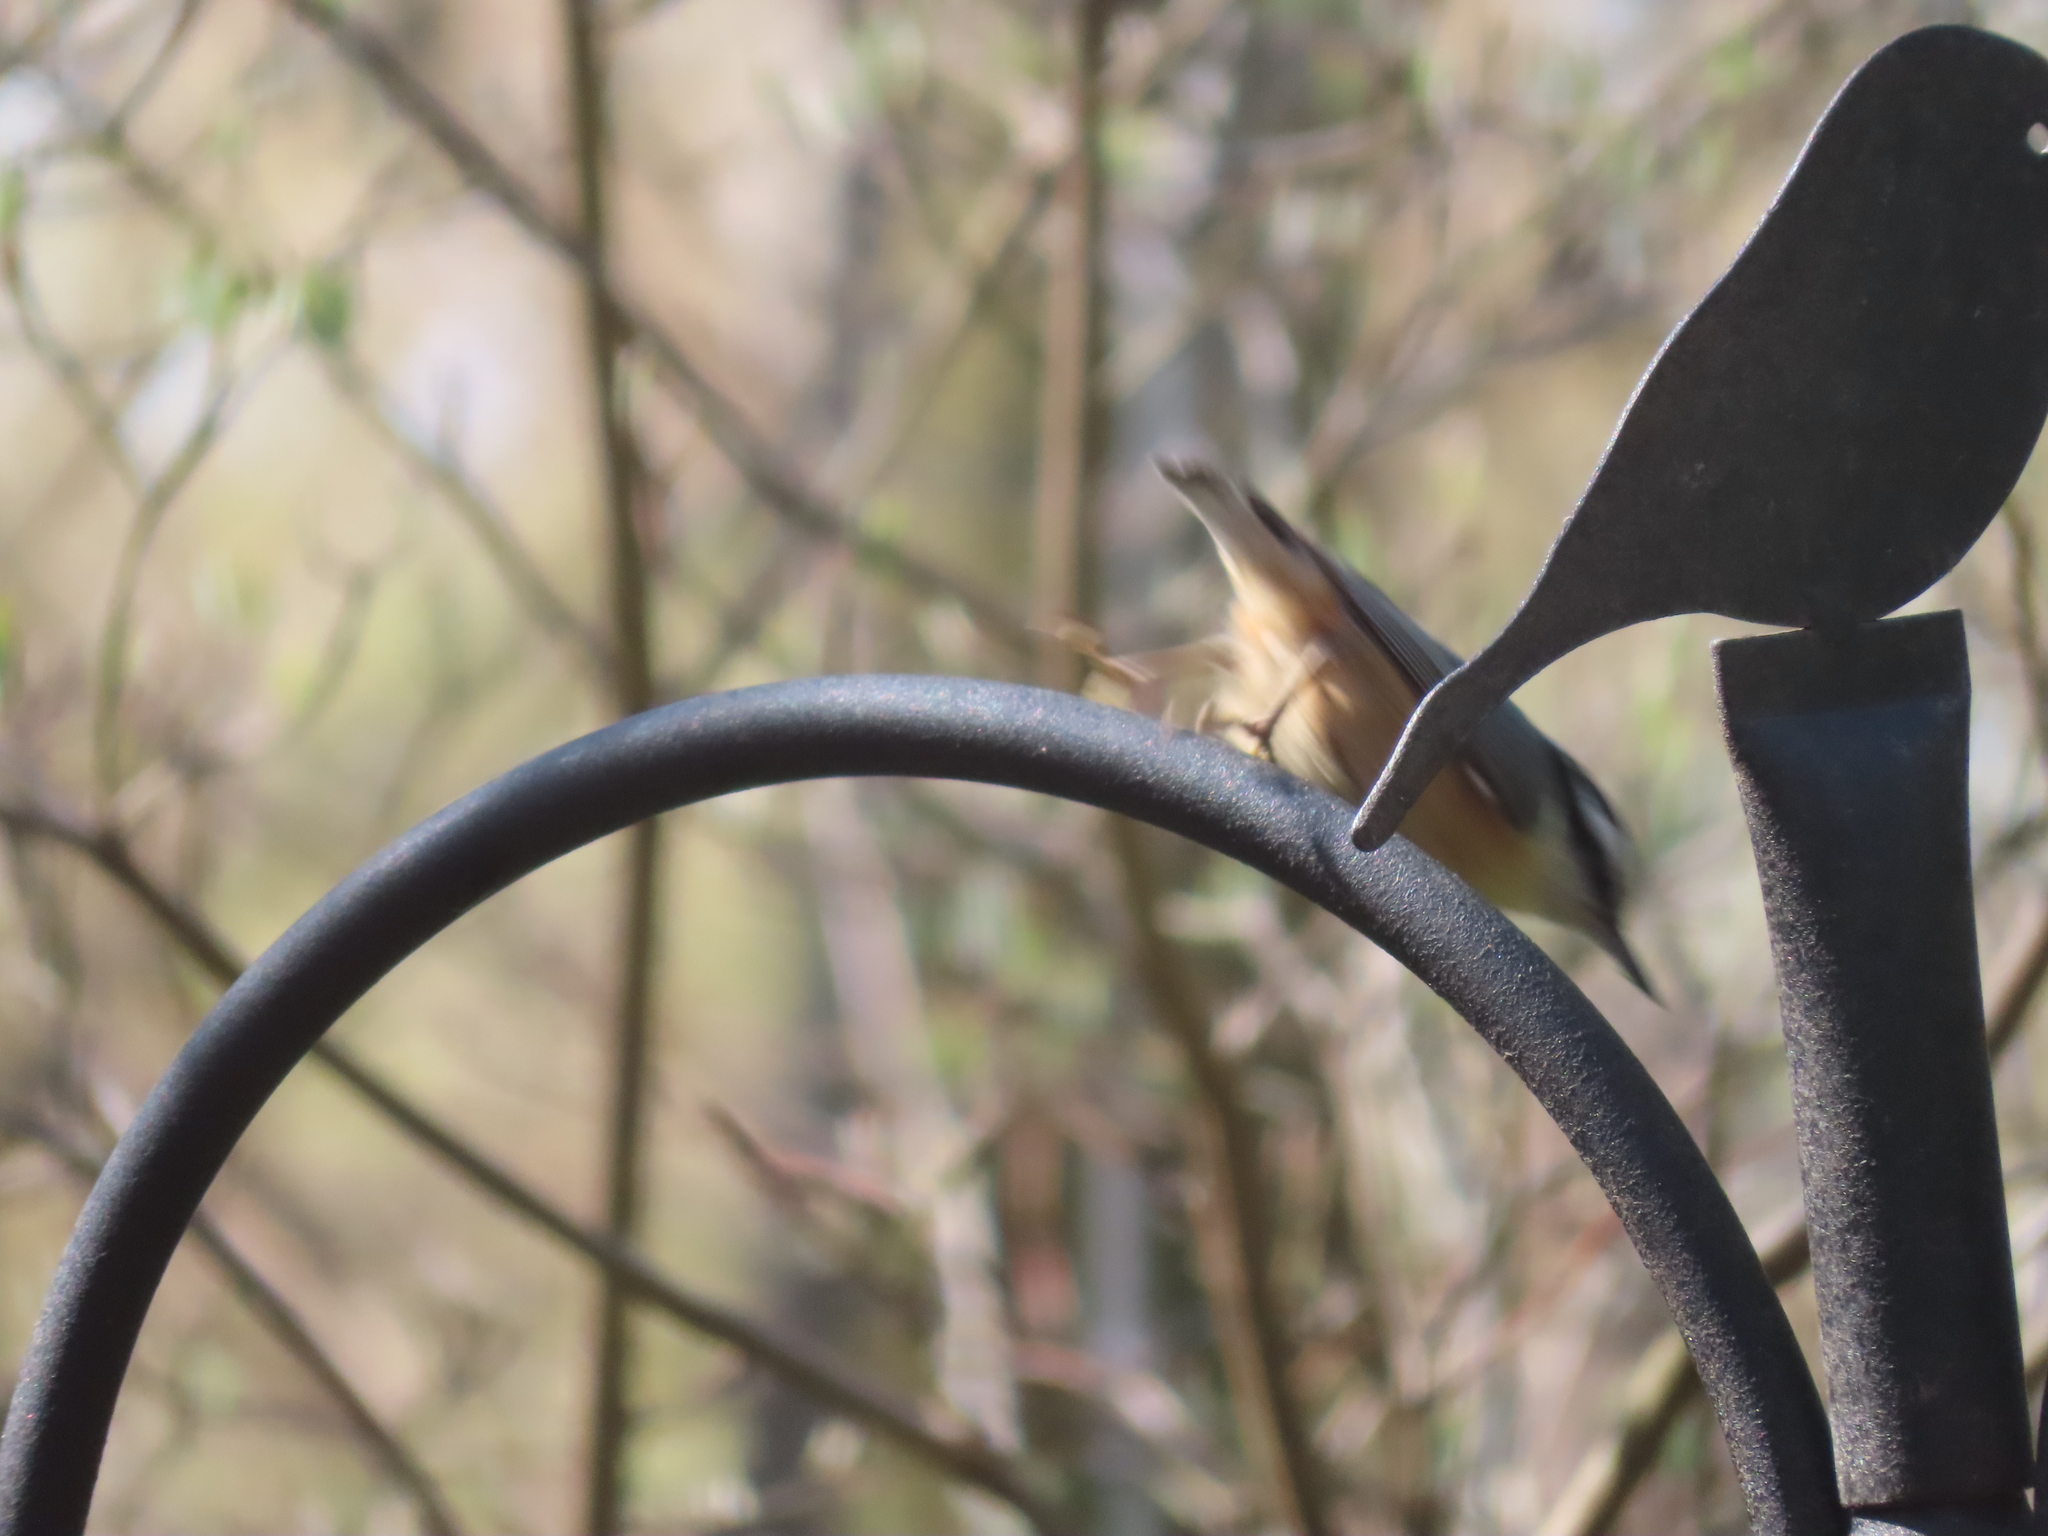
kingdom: Animalia
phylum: Chordata
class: Aves
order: Passeriformes
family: Sittidae
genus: Sitta
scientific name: Sitta canadensis
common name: Red-breasted nuthatch
